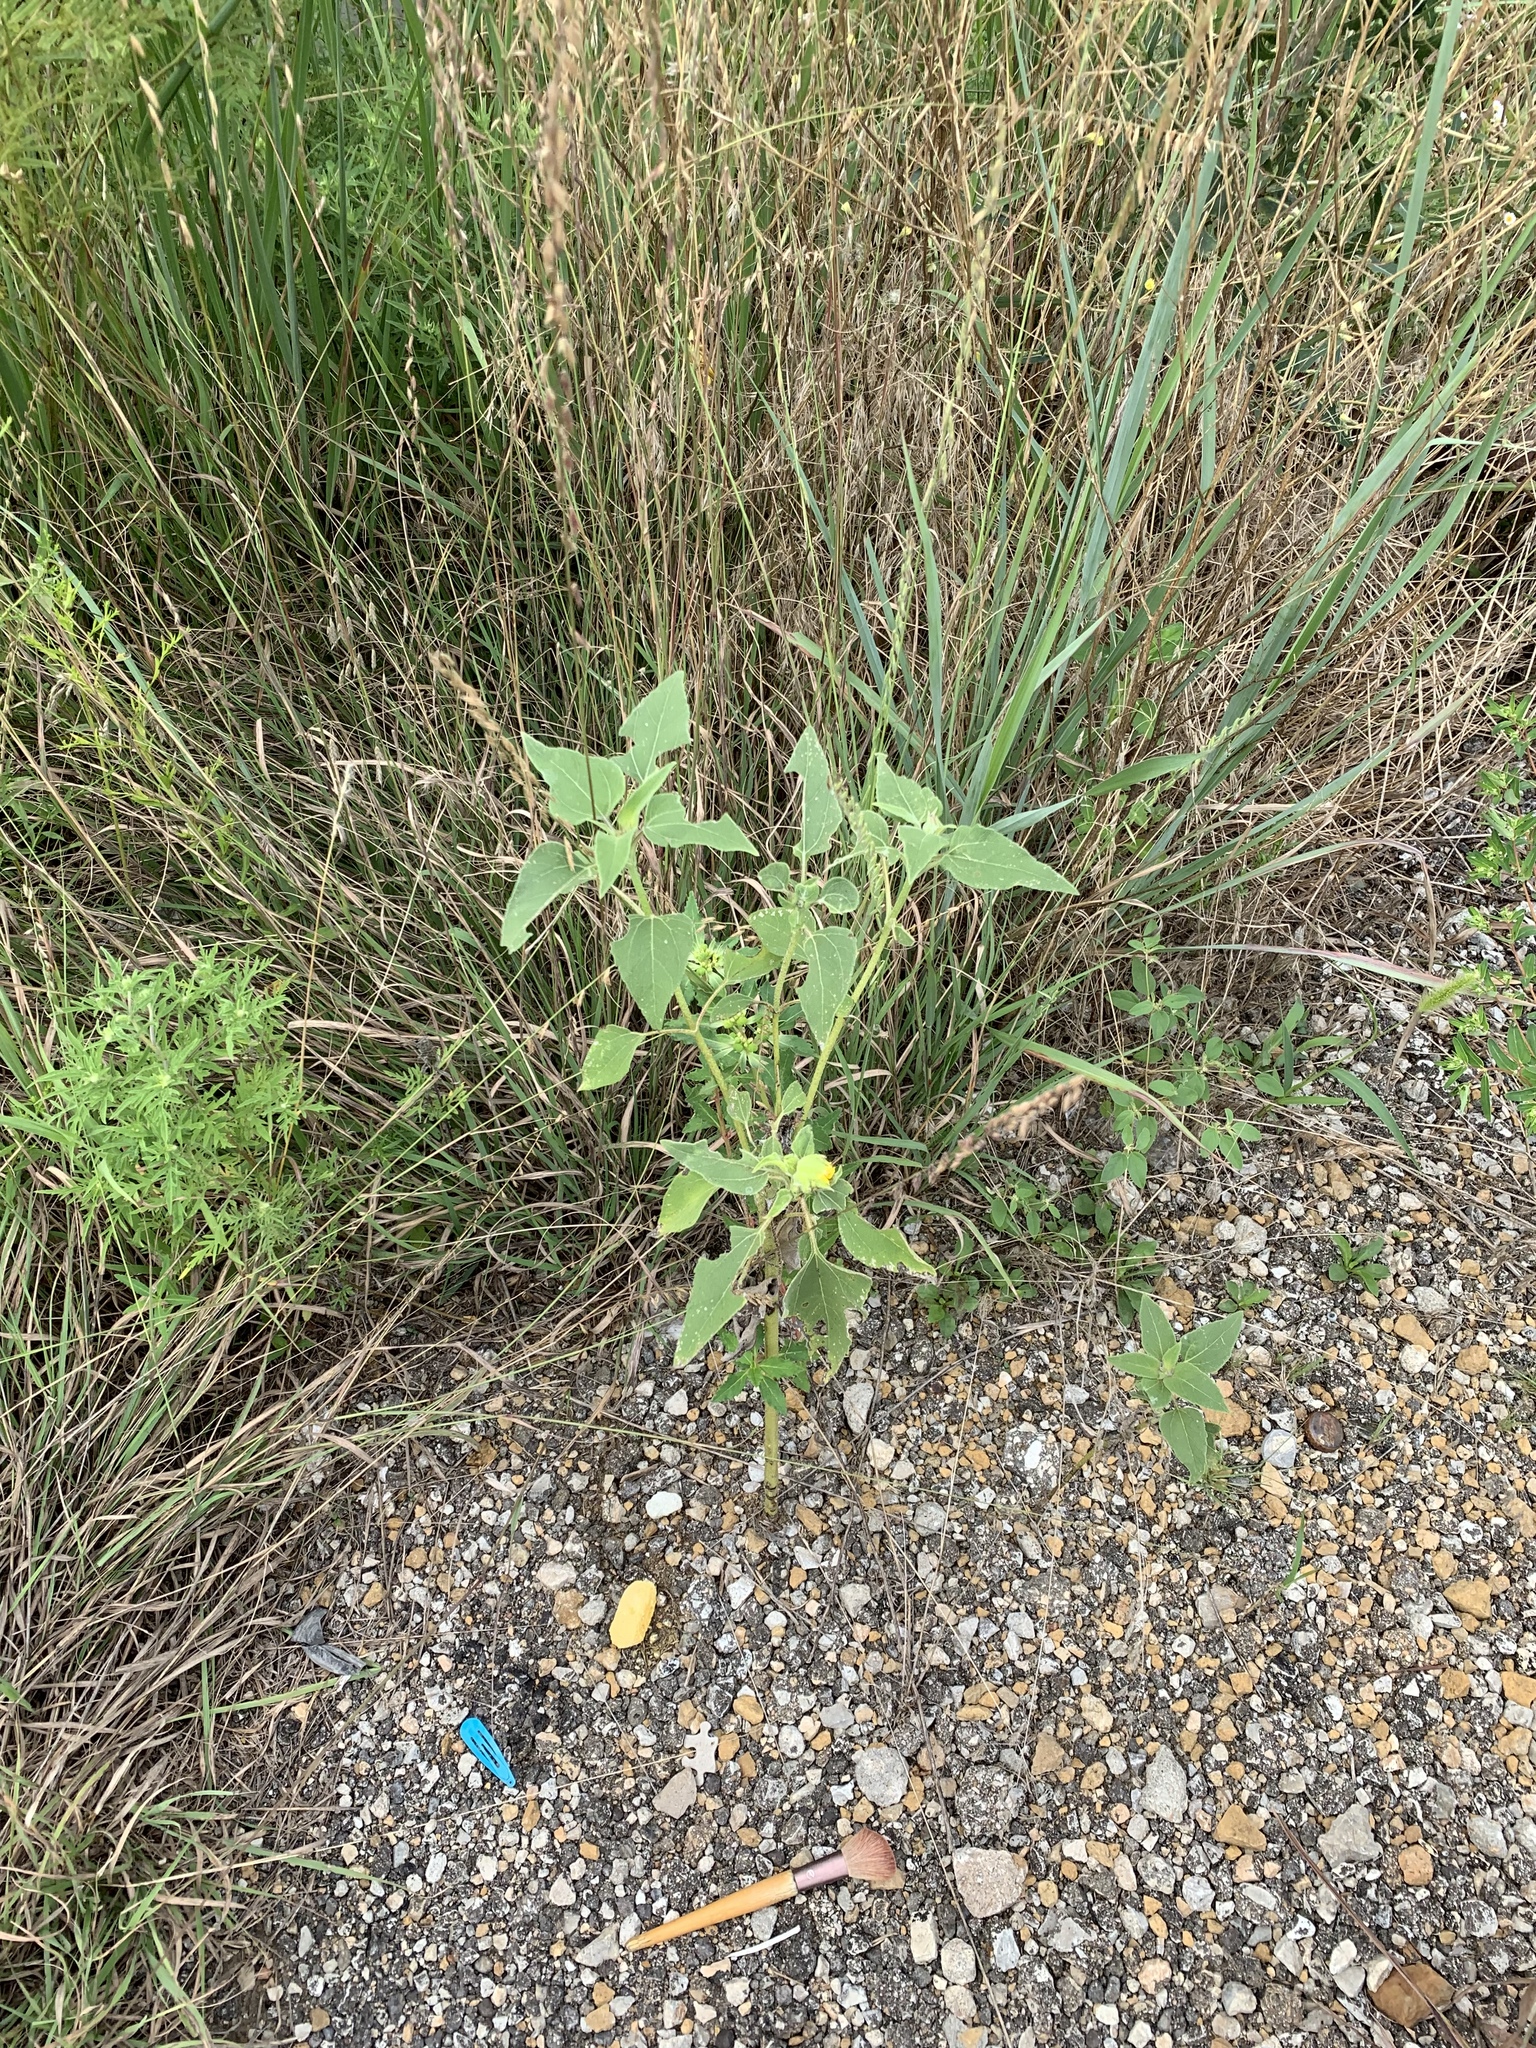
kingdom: Plantae
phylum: Tracheophyta
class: Magnoliopsida
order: Asterales
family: Asteraceae
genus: Helianthus
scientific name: Helianthus annuus
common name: Sunflower
